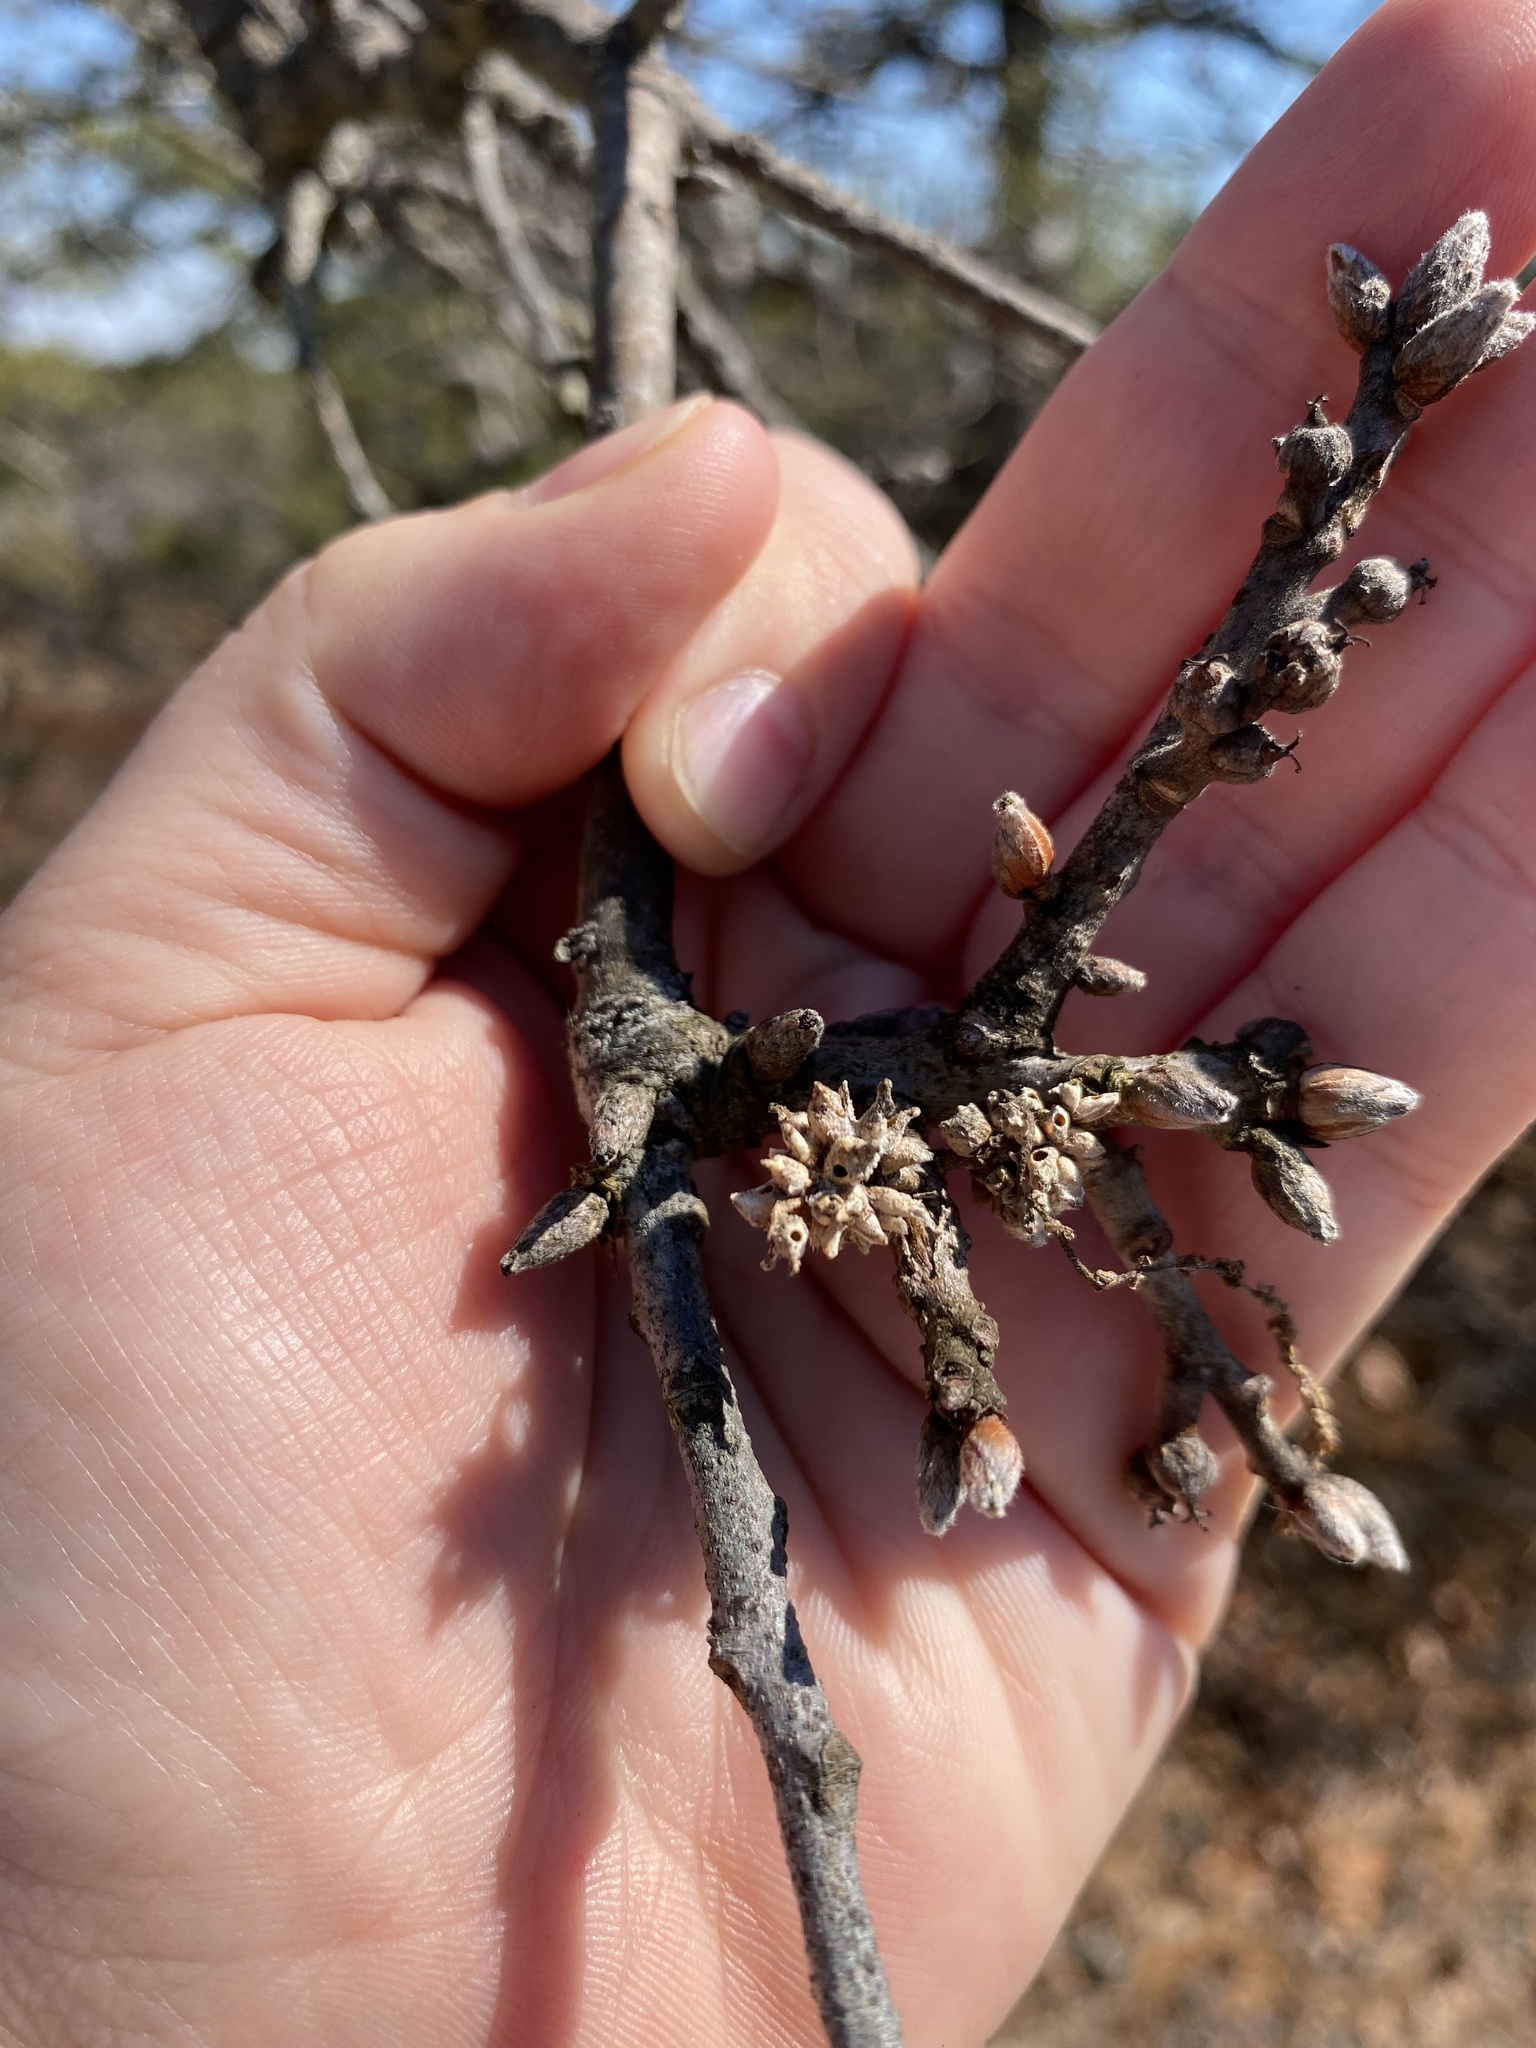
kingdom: Animalia
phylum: Arthropoda
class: Insecta
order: Hymenoptera
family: Cynipidae
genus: Callirhytis
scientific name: Callirhytis
